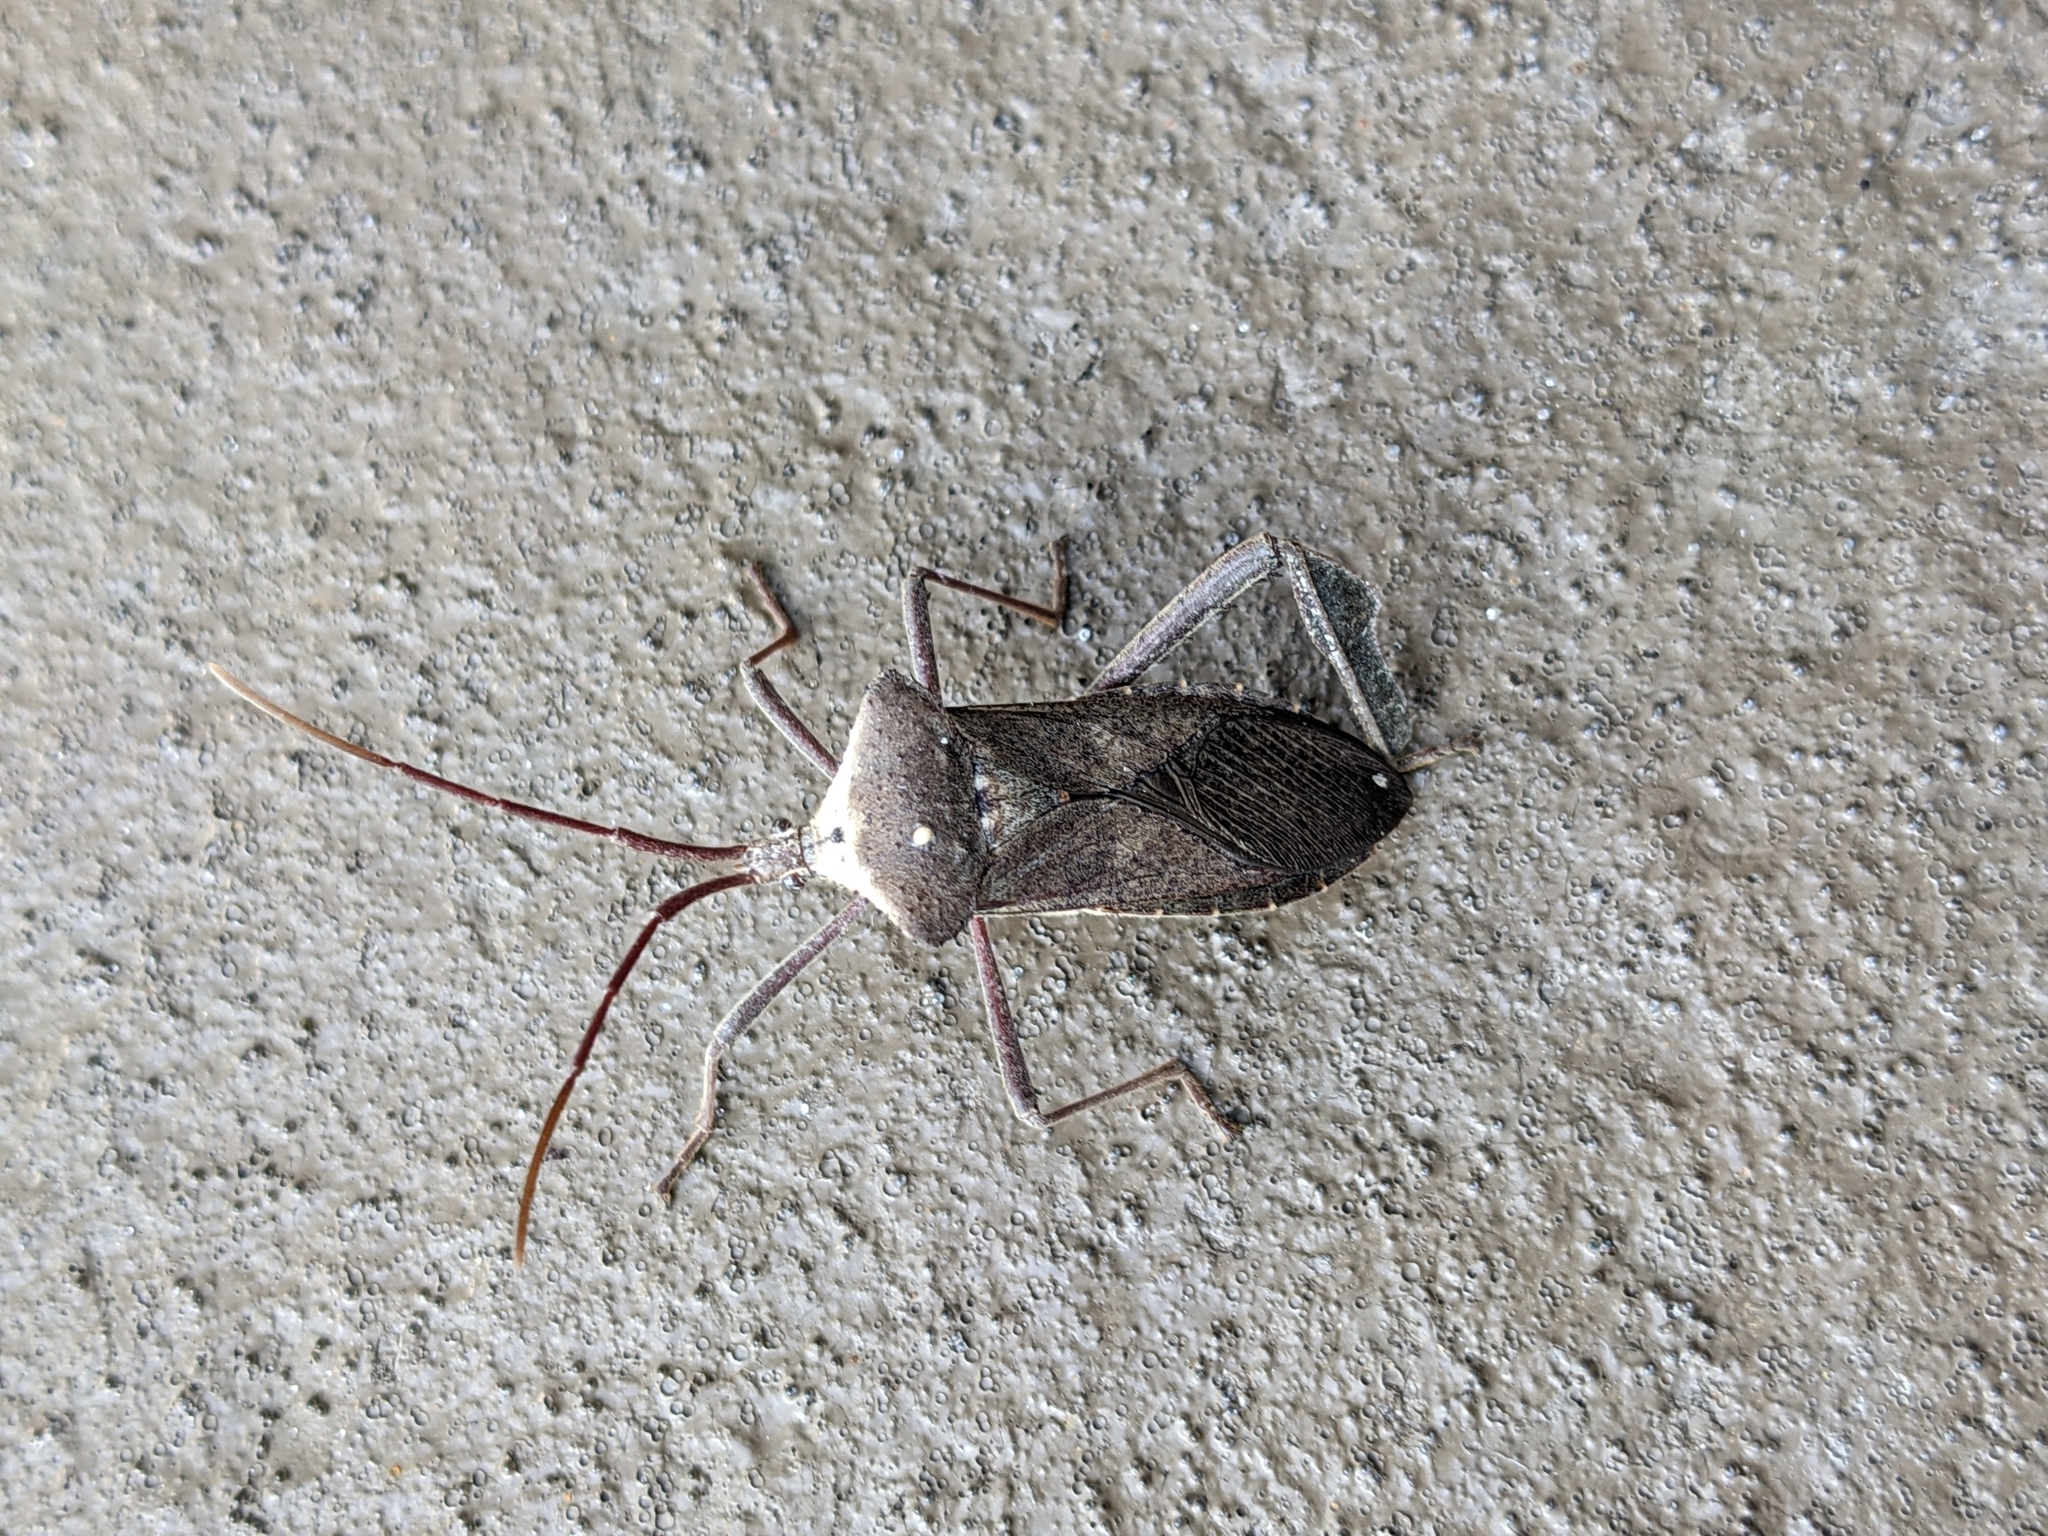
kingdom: Animalia
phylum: Arthropoda
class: Insecta
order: Hemiptera
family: Coreidae
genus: Acanthocephala
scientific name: Acanthocephala declivis
